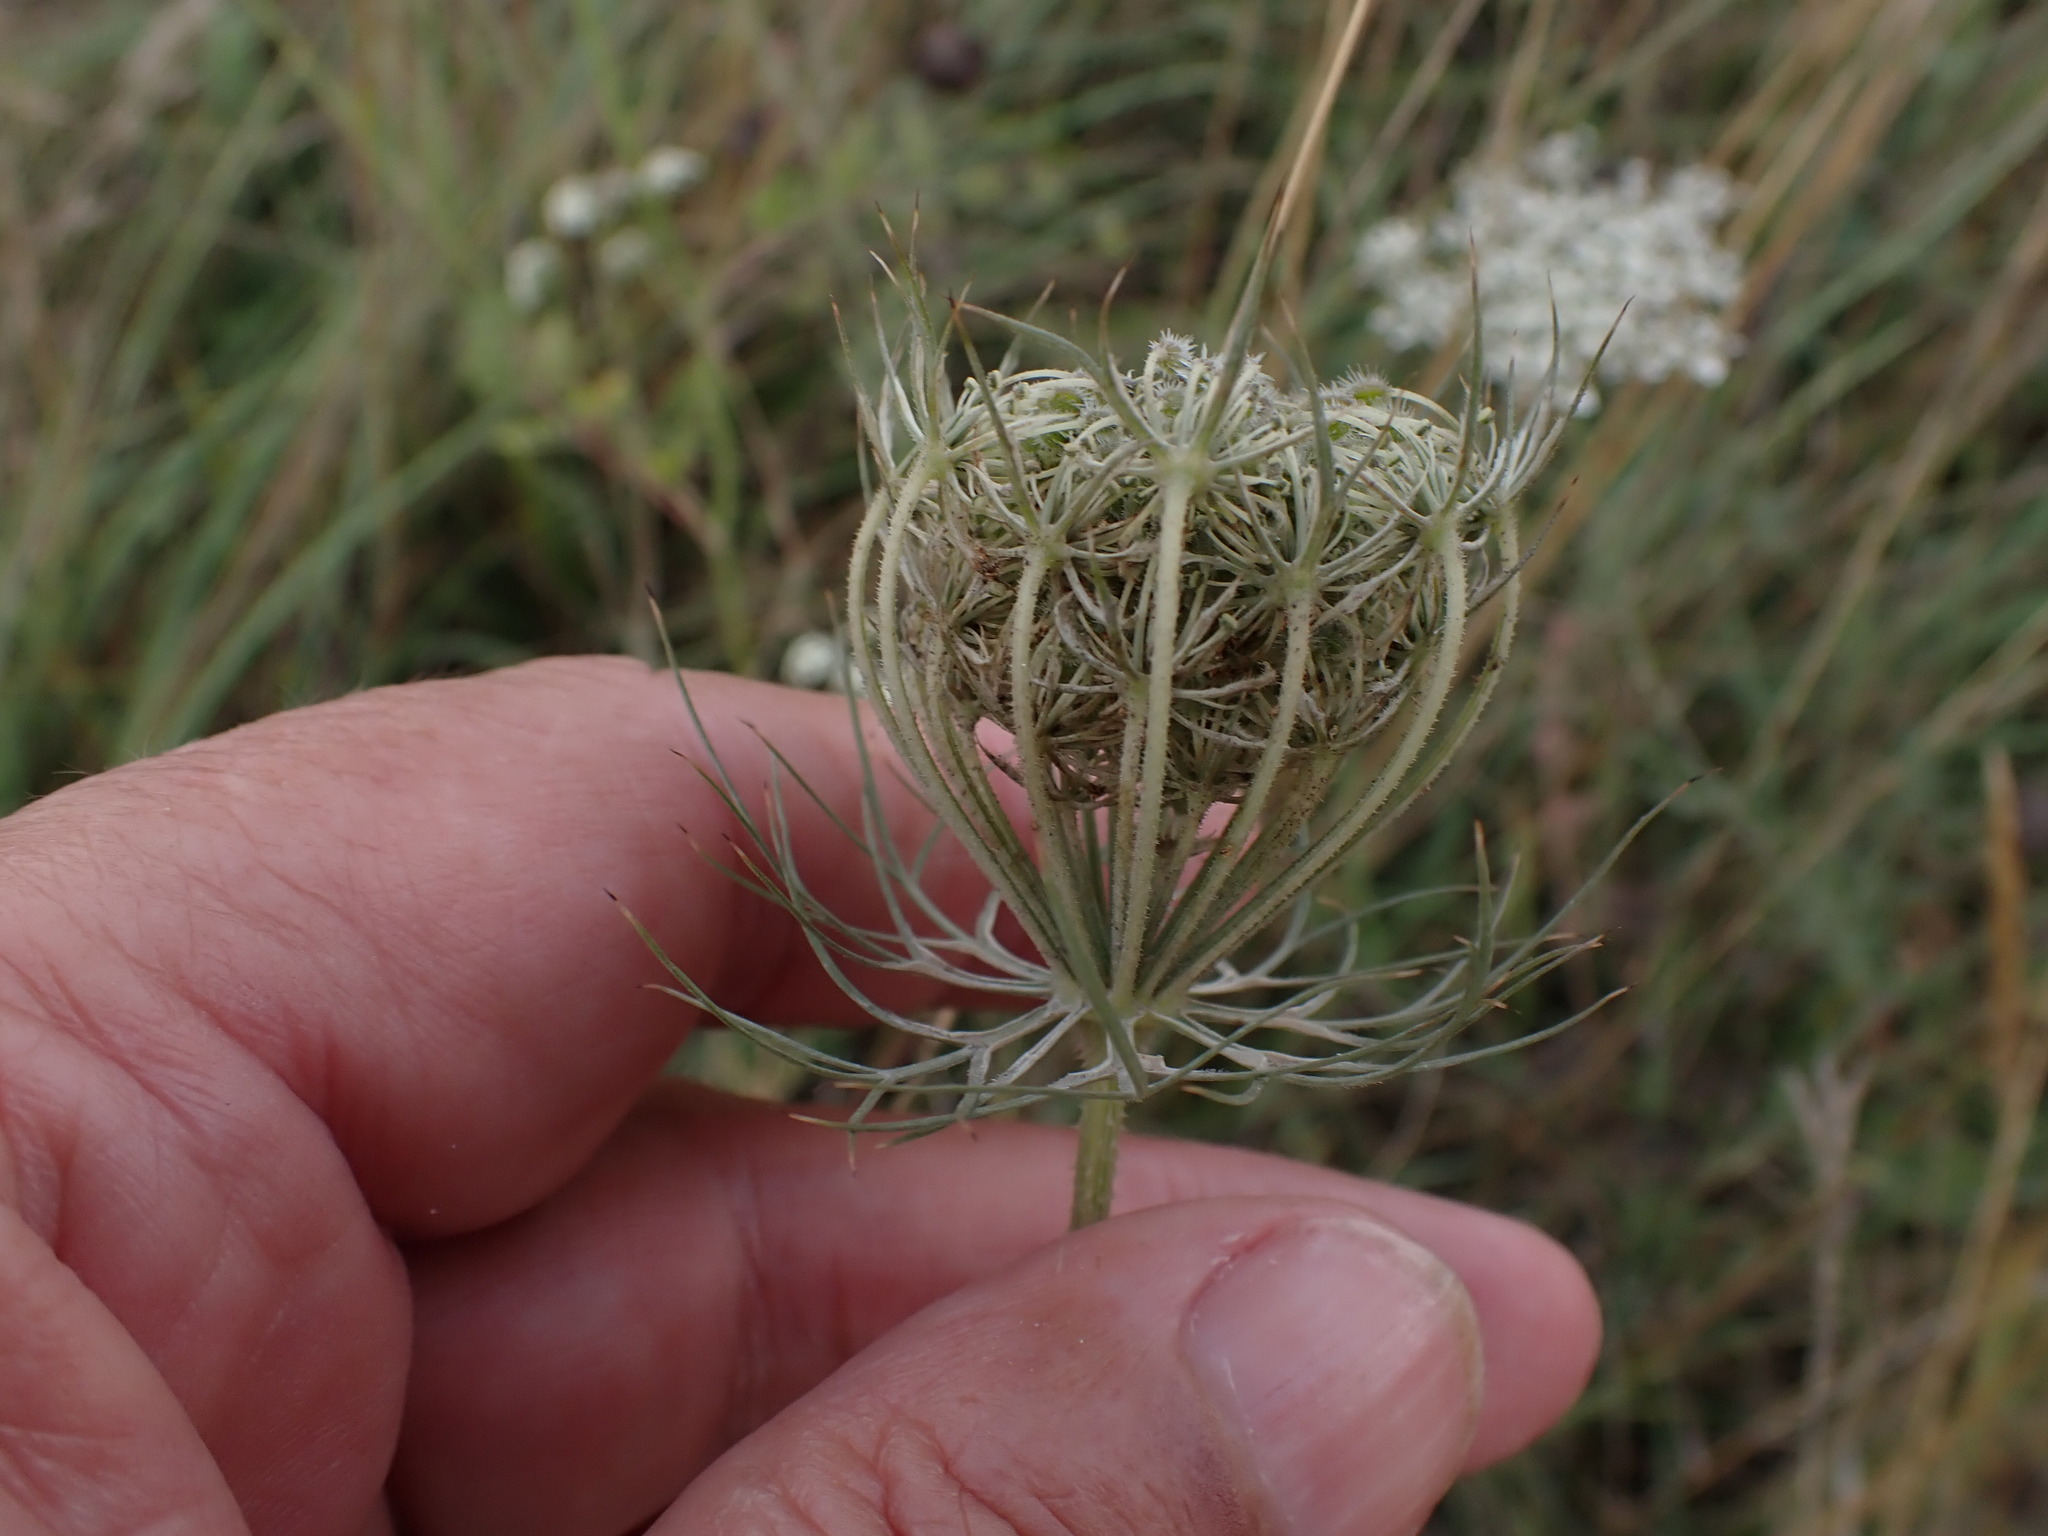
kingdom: Plantae
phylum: Tracheophyta
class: Magnoliopsida
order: Apiales
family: Apiaceae
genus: Daucus
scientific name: Daucus carota
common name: Wild carrot
